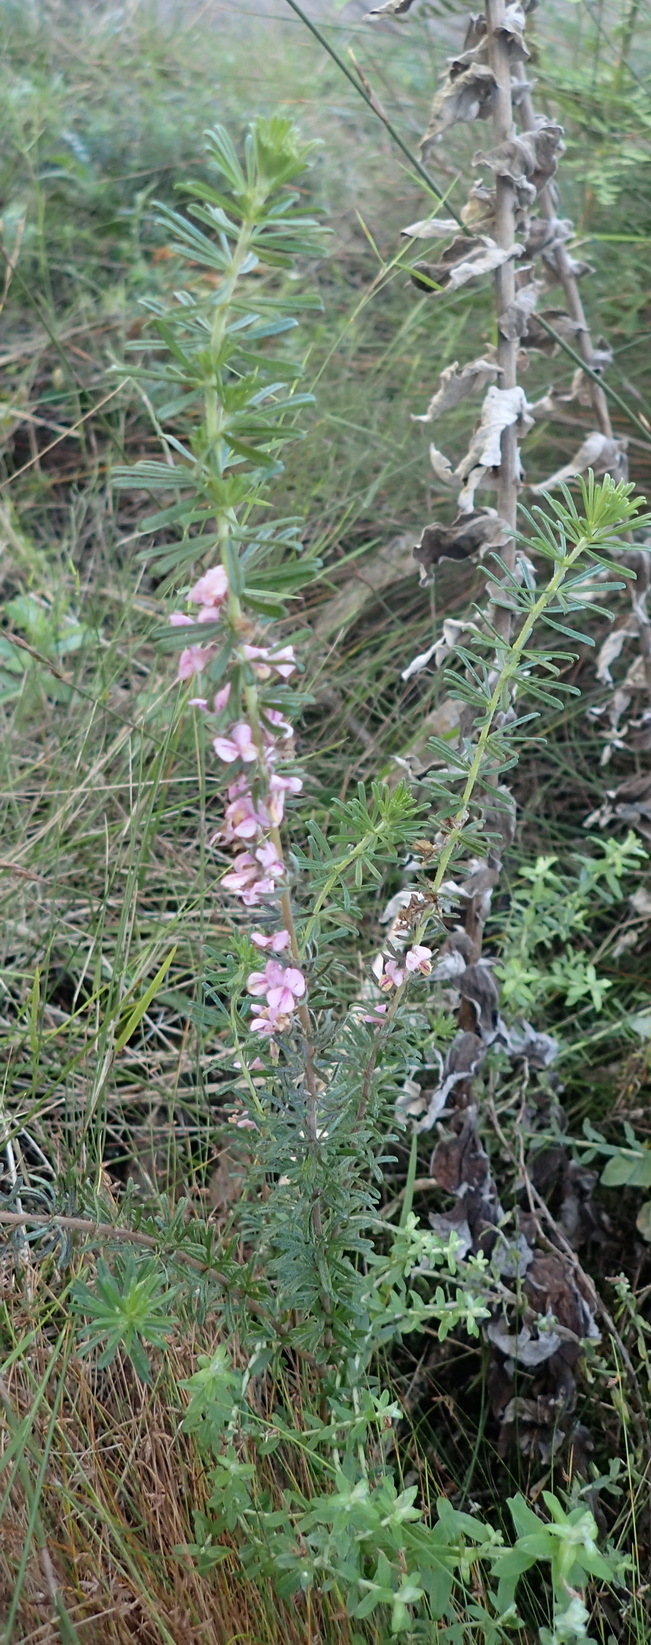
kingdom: Plantae
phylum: Tracheophyta
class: Magnoliopsida
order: Fabales
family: Fabaceae
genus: Indigofera
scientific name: Indigofera pappei
